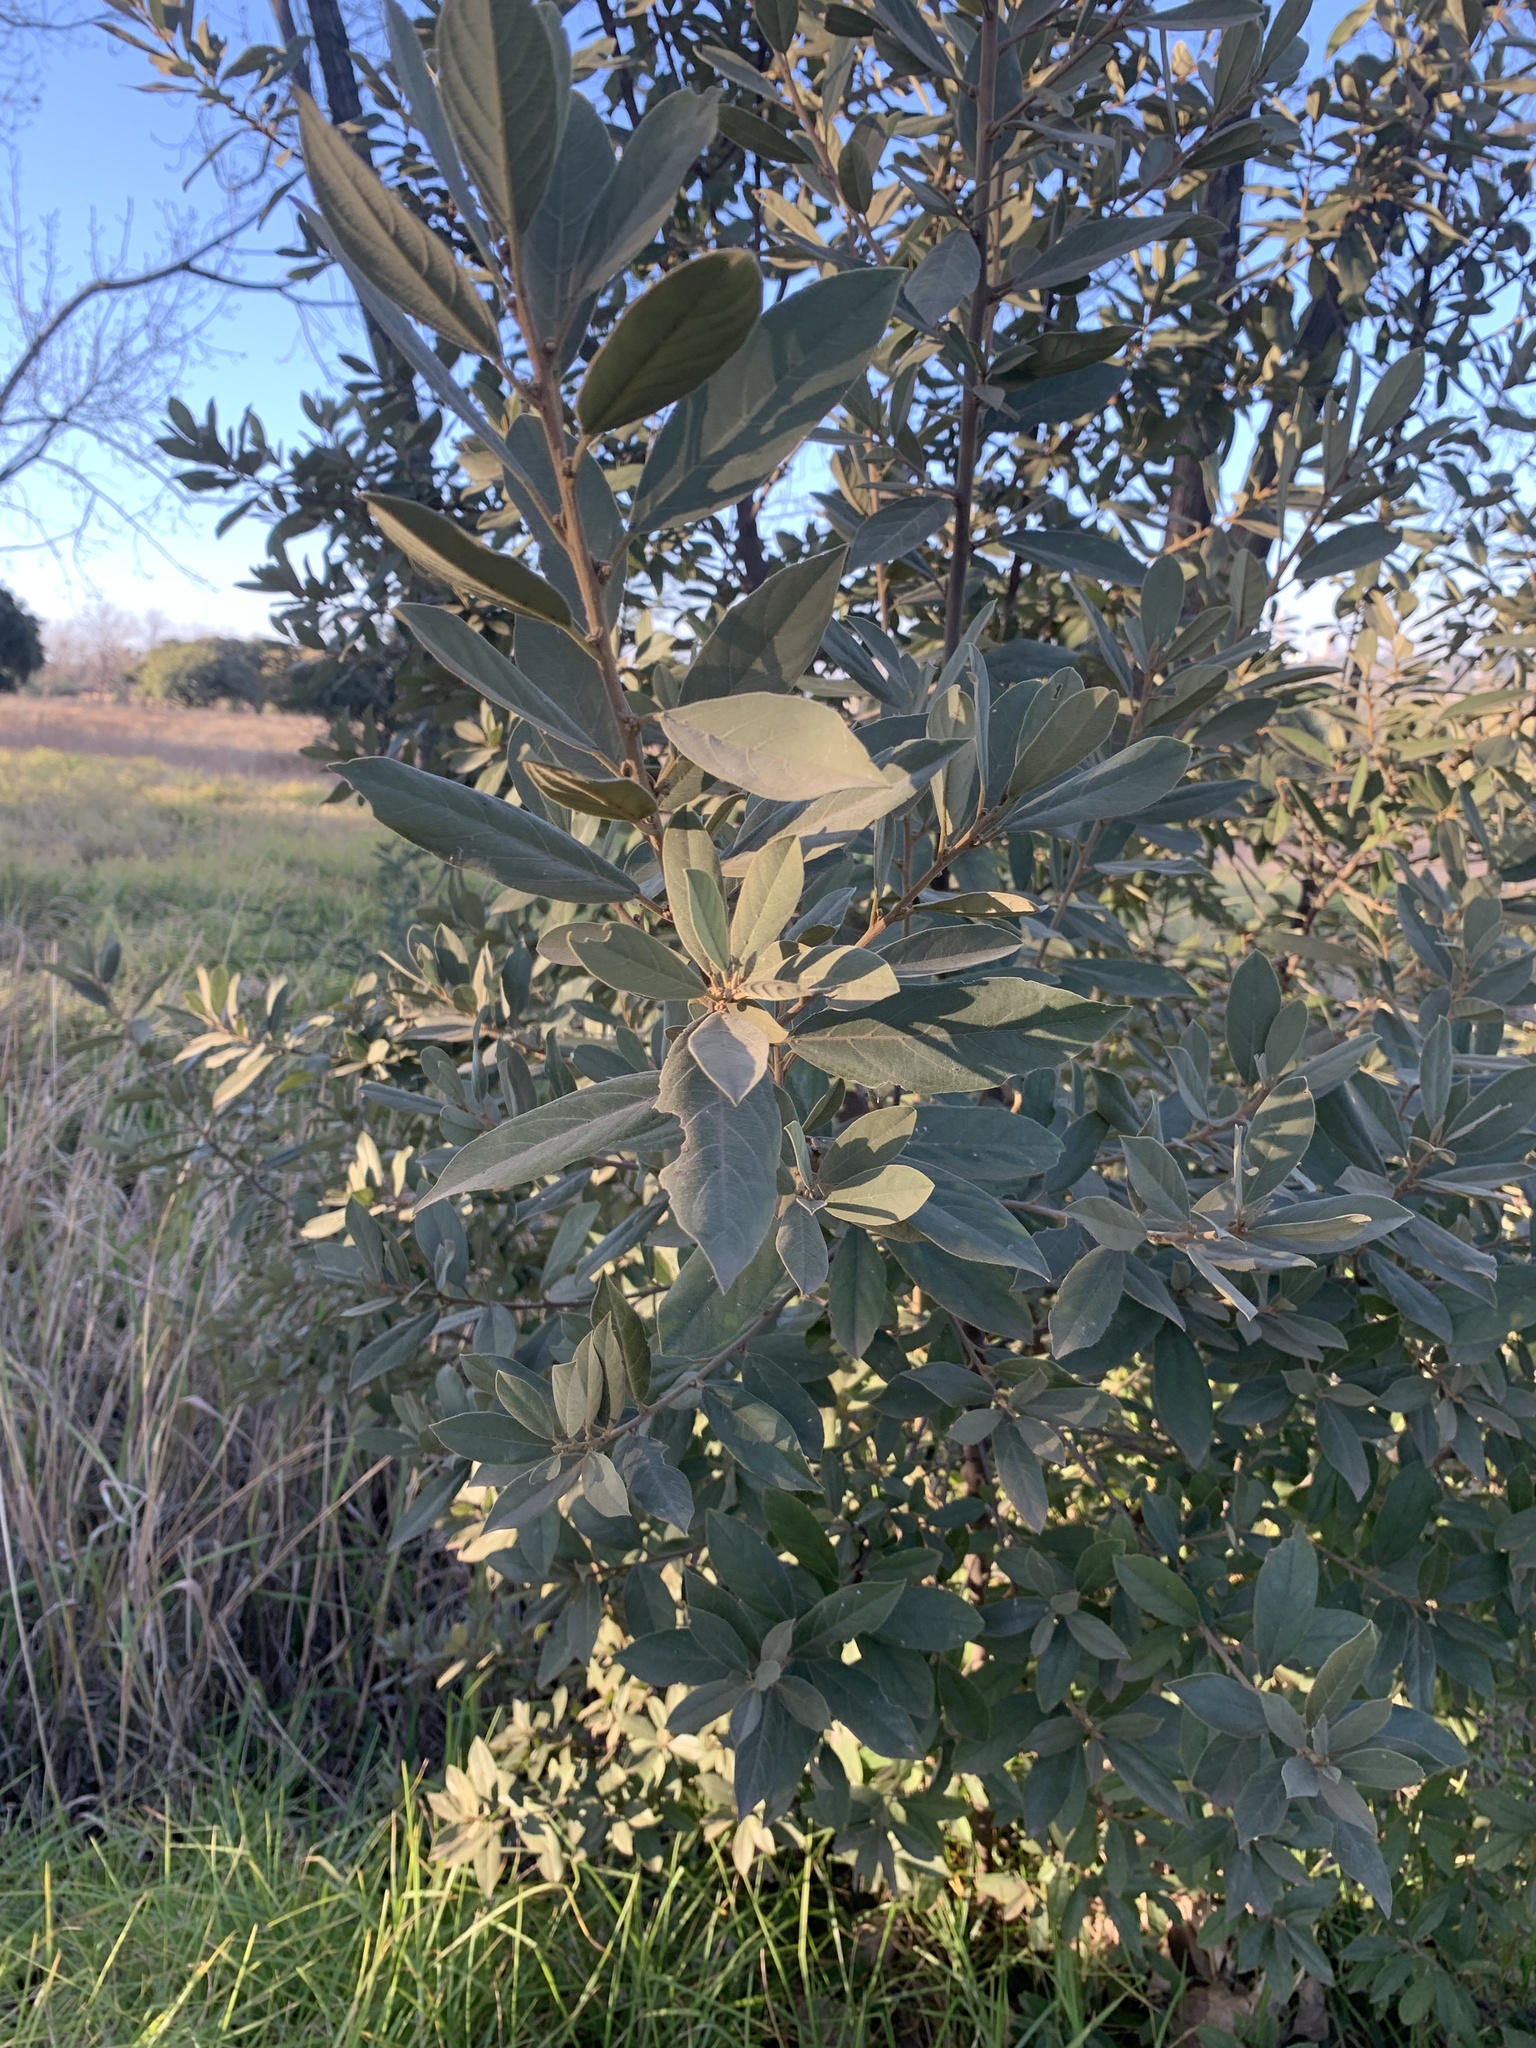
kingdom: Plantae
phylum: Tracheophyta
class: Magnoliopsida
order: Malpighiales
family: Achariaceae
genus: Kiggelaria
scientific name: Kiggelaria africana
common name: Wild peach
